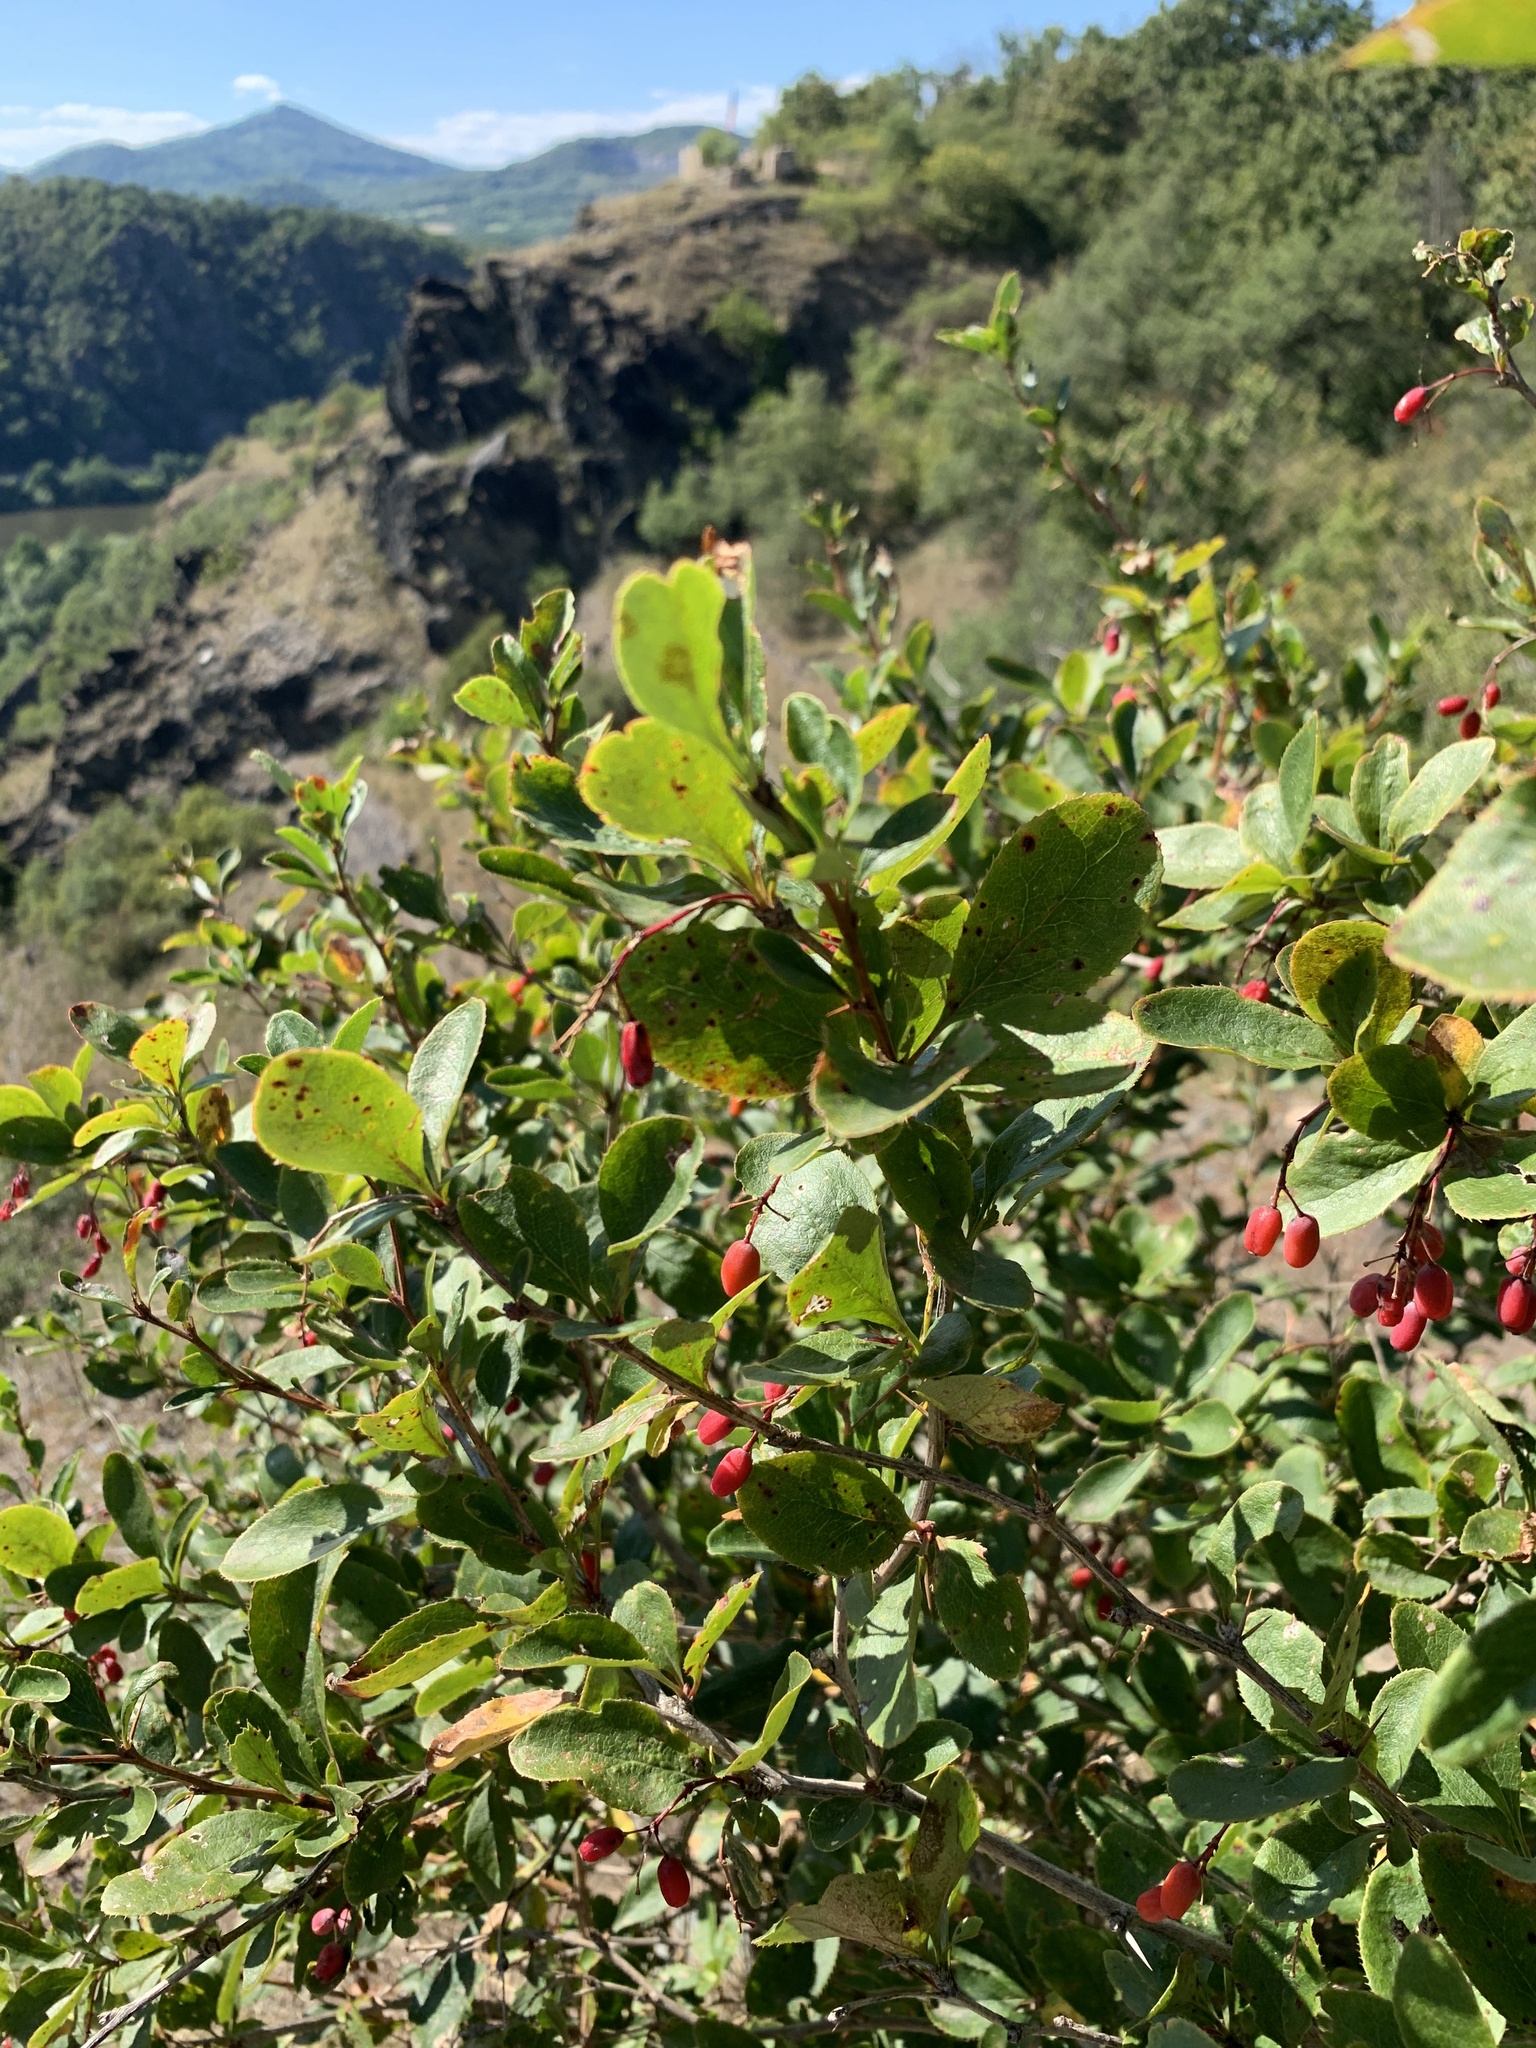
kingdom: Plantae
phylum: Tracheophyta
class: Magnoliopsida
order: Ranunculales
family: Berberidaceae
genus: Berberis
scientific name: Berberis vulgaris
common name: Barberry
